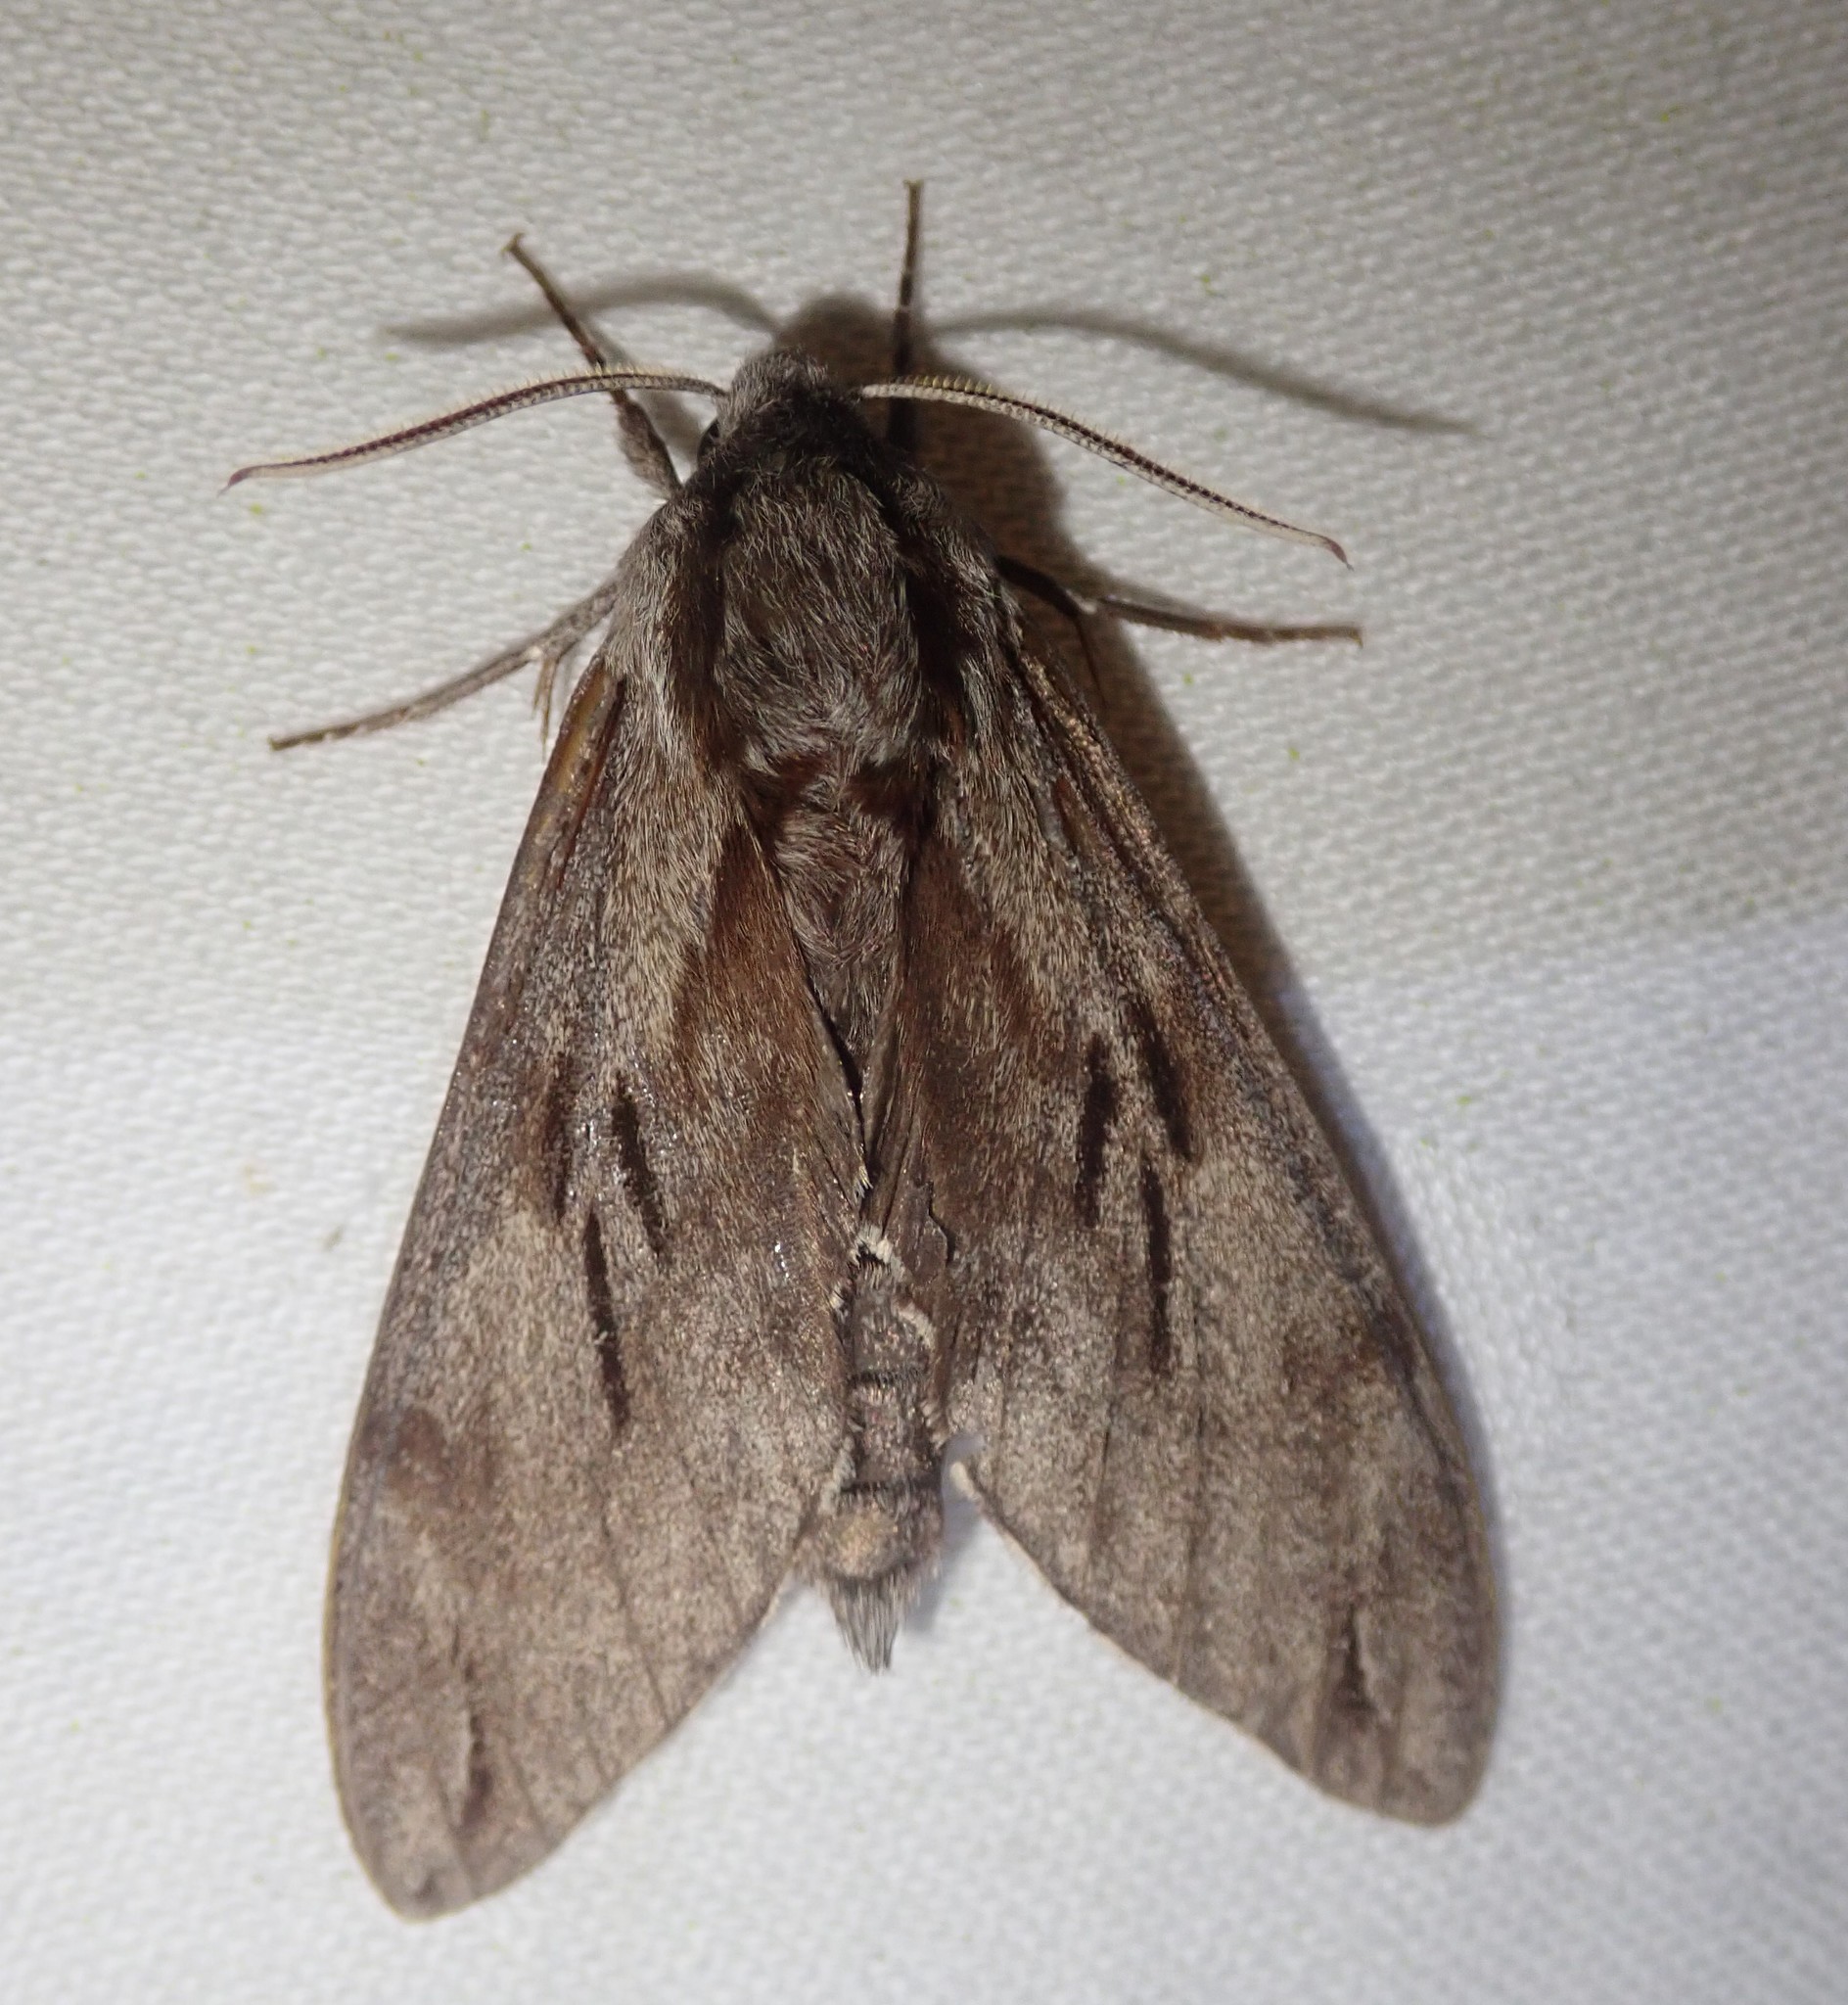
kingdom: Animalia
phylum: Arthropoda
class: Insecta
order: Lepidoptera
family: Sphingidae
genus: Sphinx
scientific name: Sphinx pinastri
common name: Pine hawk-moth
